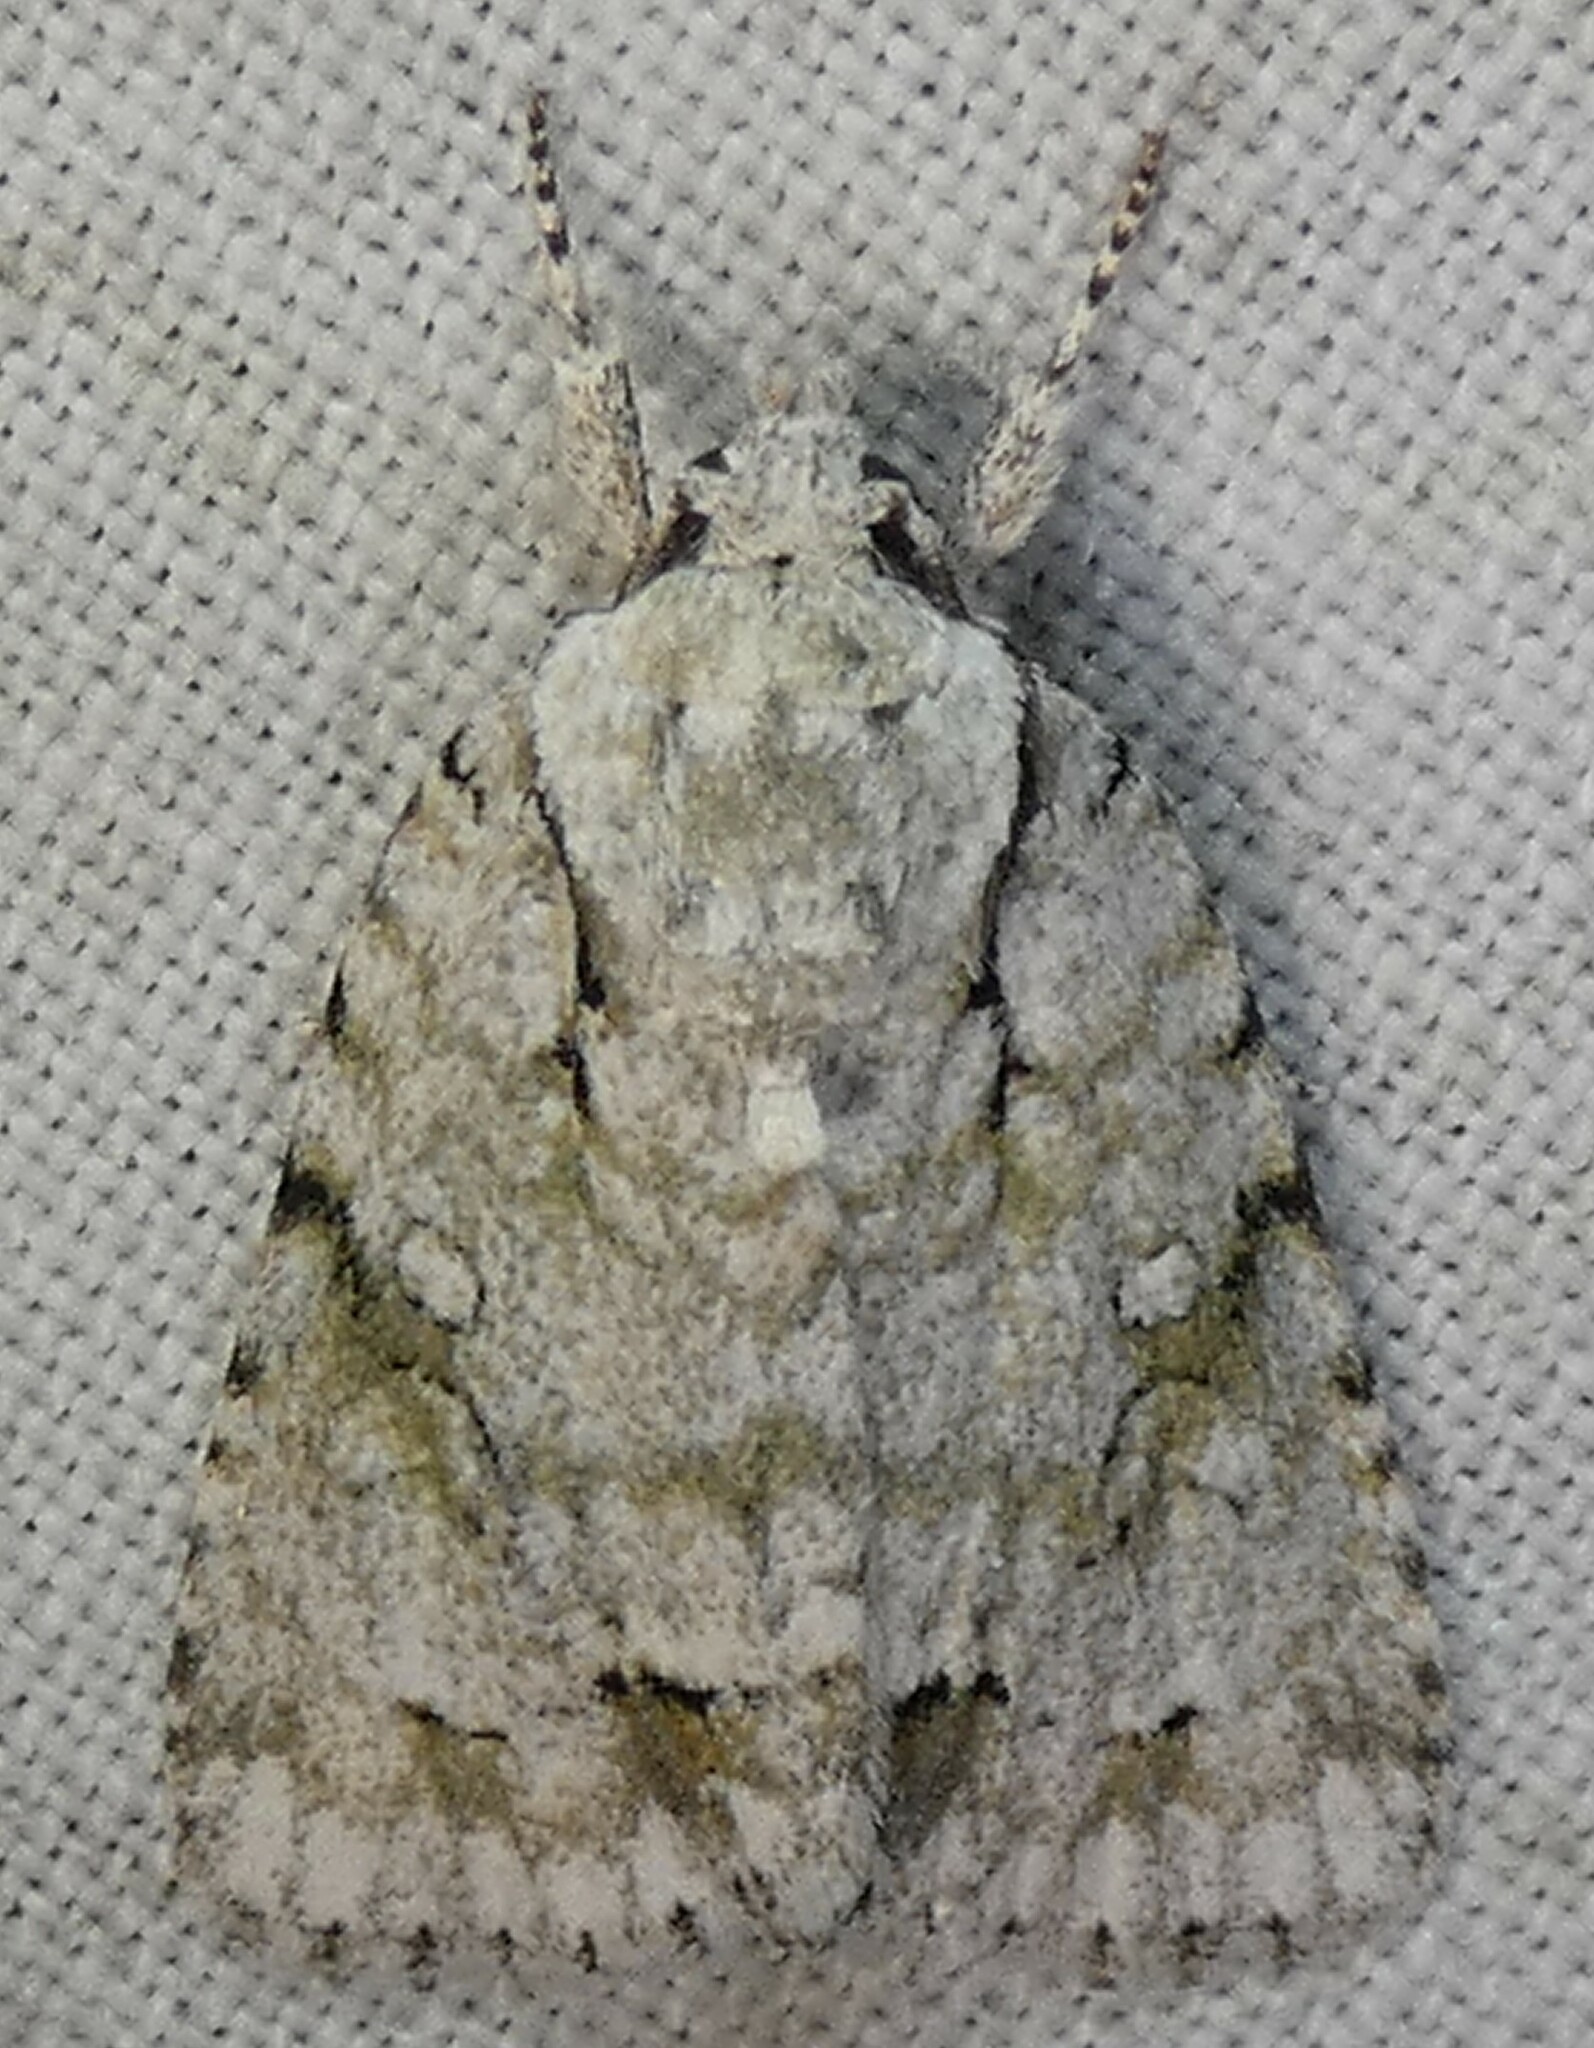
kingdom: Animalia
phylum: Arthropoda
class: Insecta
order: Lepidoptera
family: Noctuidae
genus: Acronicta
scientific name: Acronicta vinnula
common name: Delightful dagger
